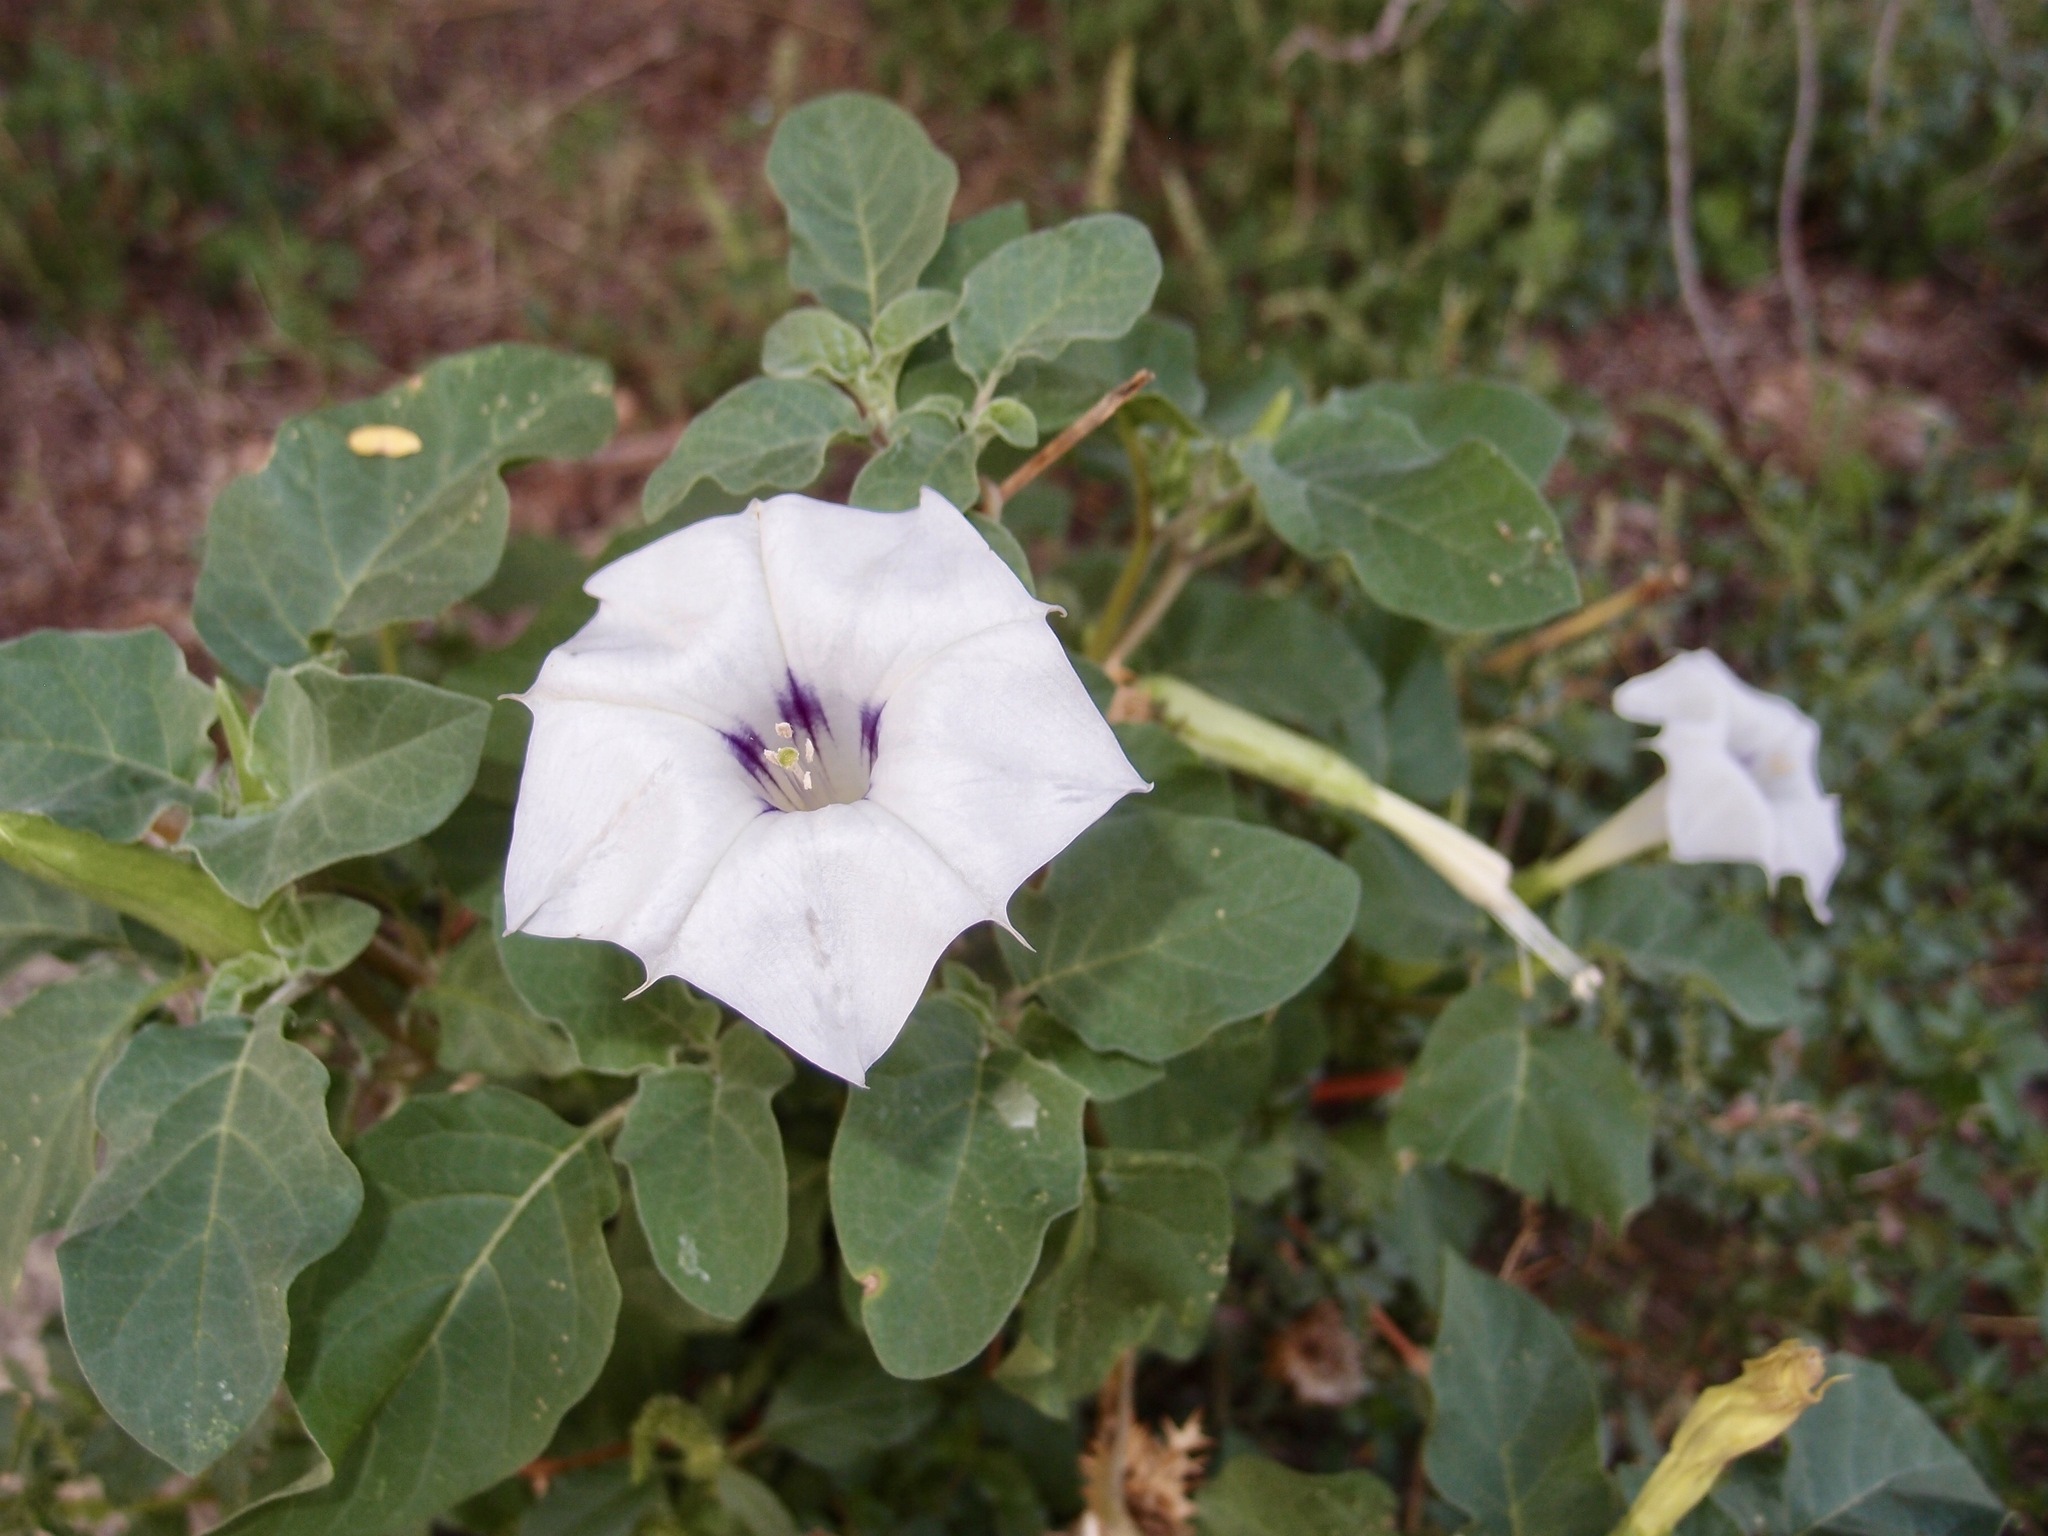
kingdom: Plantae
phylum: Tracheophyta
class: Magnoliopsida
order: Solanales
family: Solanaceae
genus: Datura
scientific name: Datura discolor
